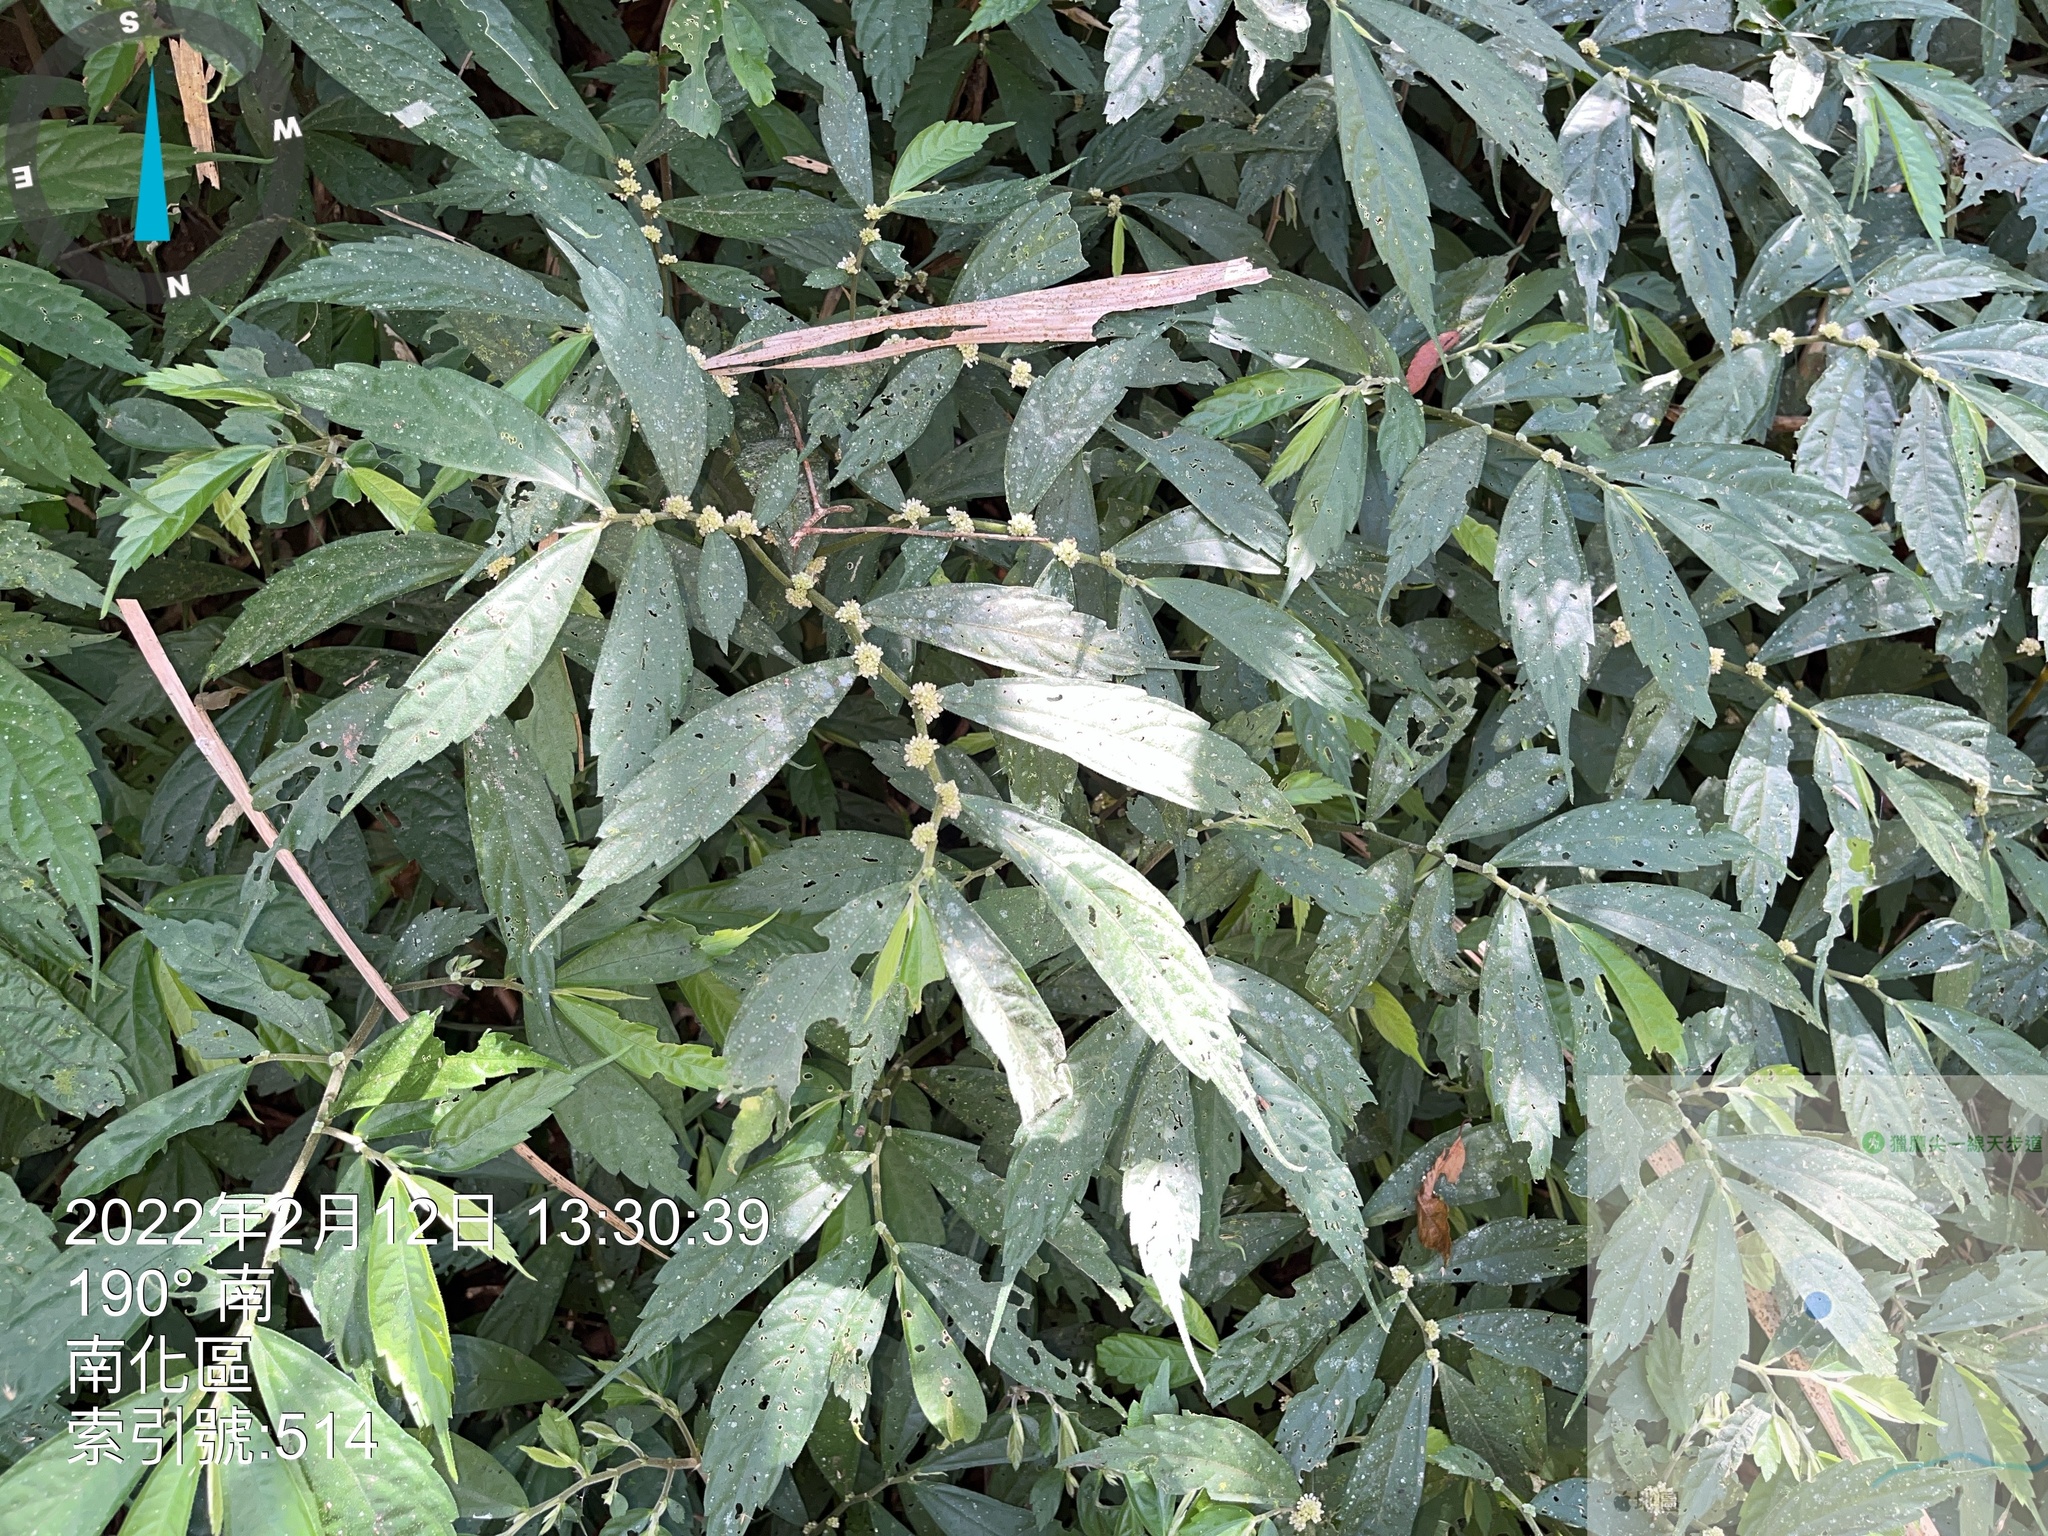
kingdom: Plantae
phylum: Tracheophyta
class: Magnoliopsida
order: Rosales
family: Urticaceae
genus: Elatostema
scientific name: Elatostema lineolatum
